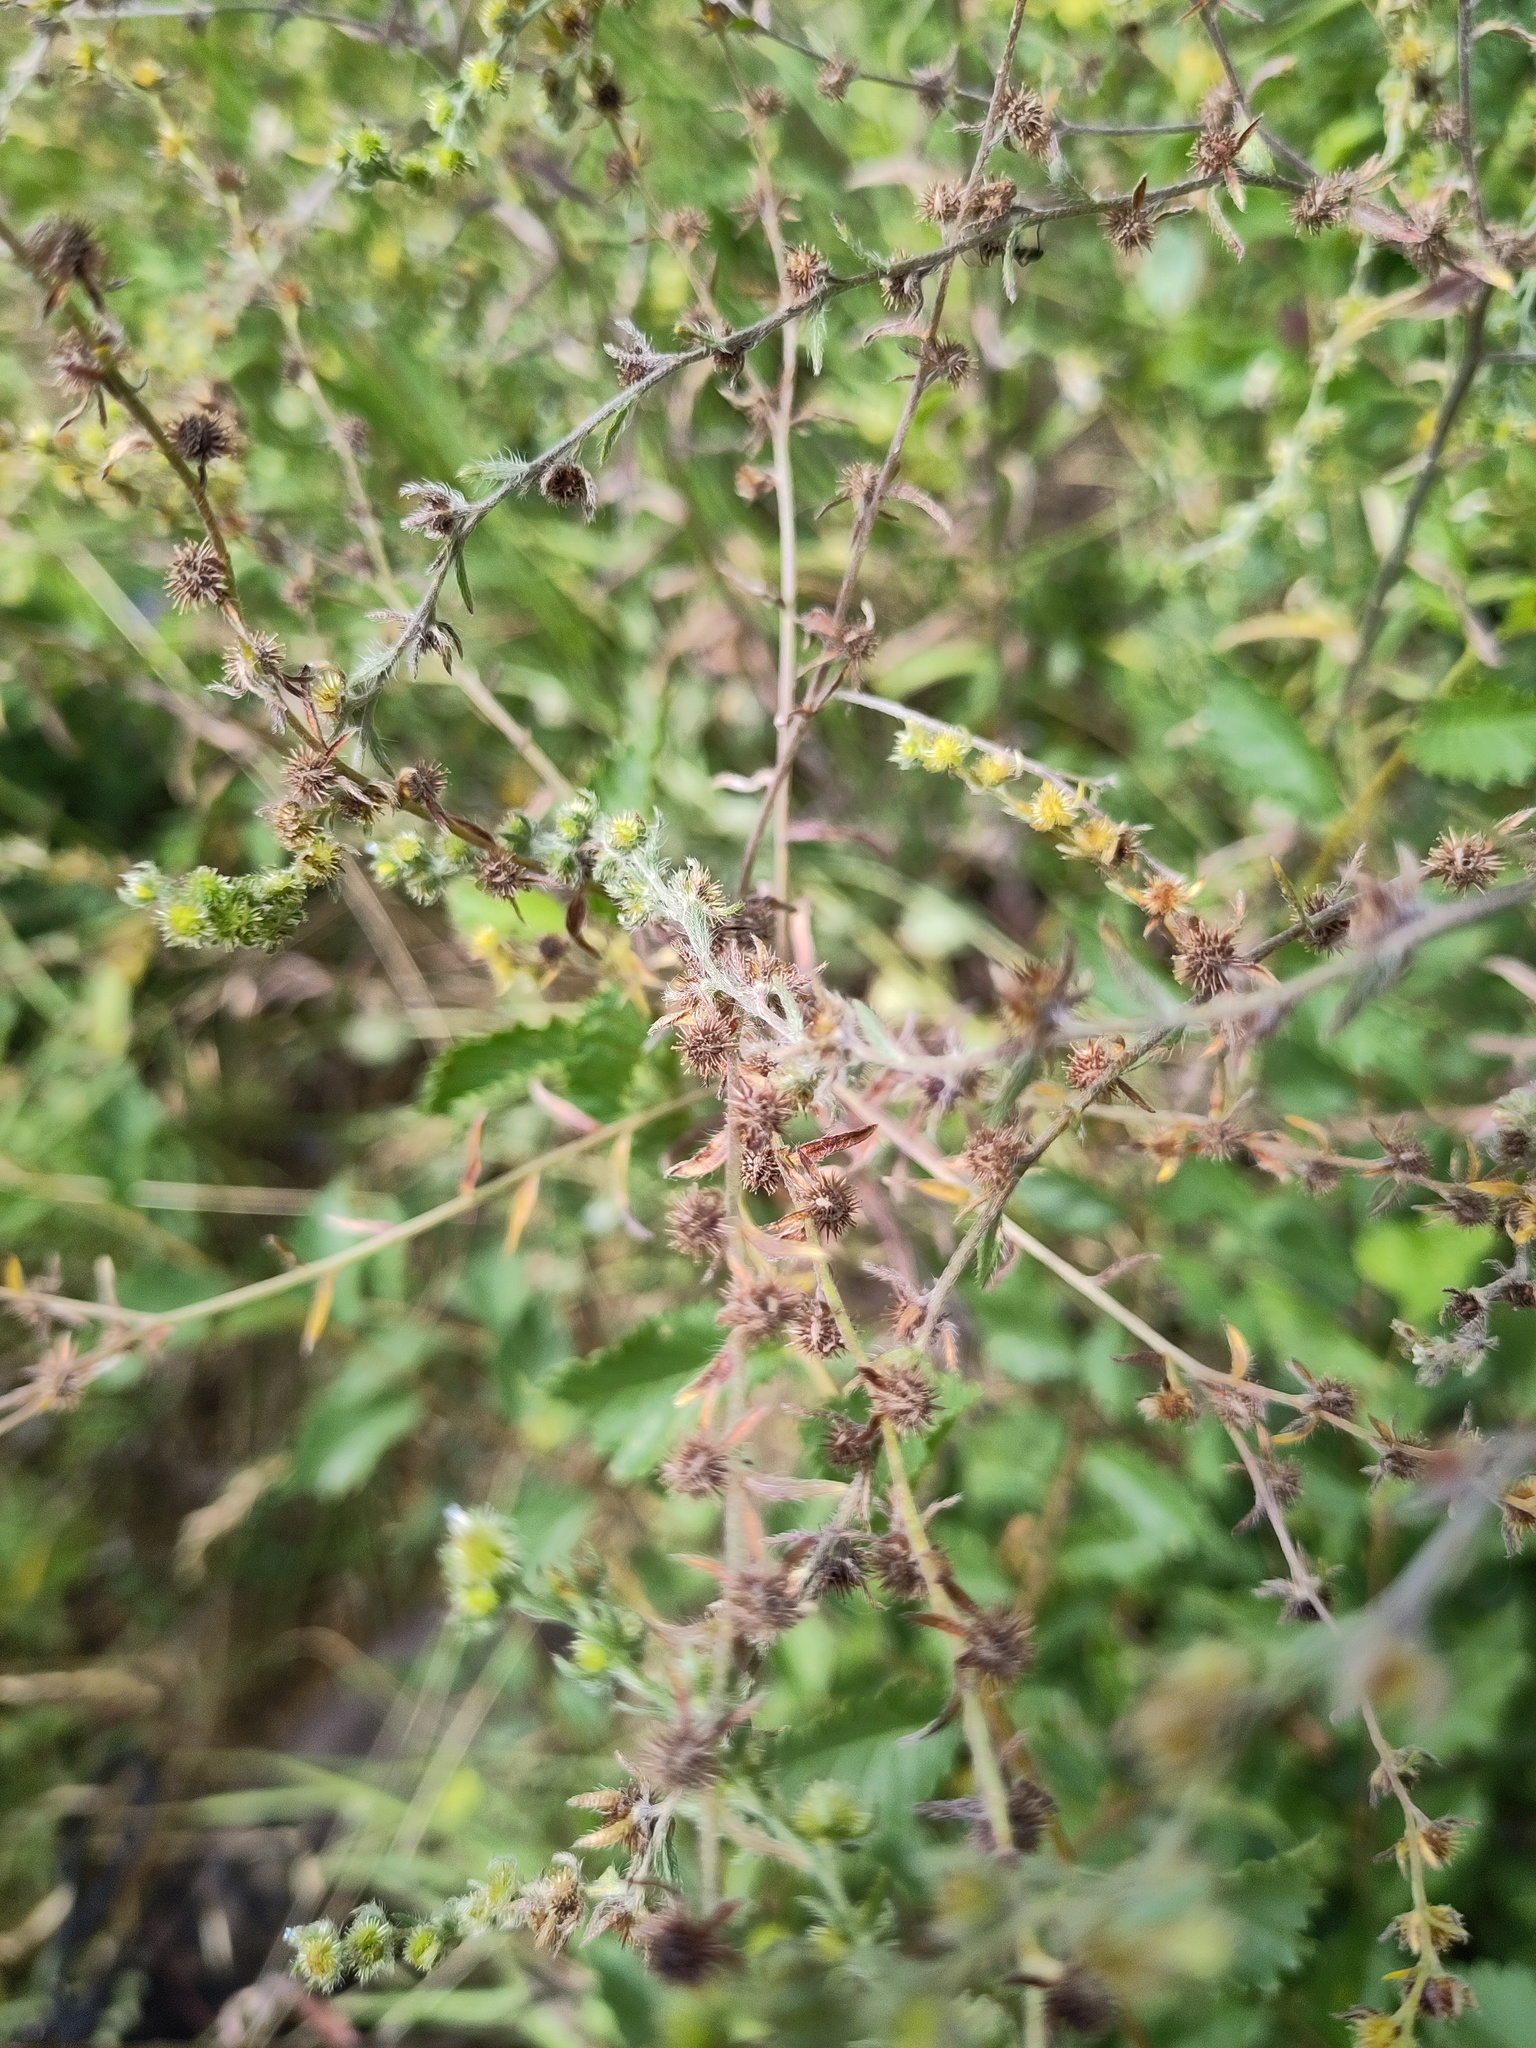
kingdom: Plantae
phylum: Tracheophyta
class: Magnoliopsida
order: Boraginales
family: Boraginaceae
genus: Lappula
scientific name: Lappula squarrosa
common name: European stickseed
